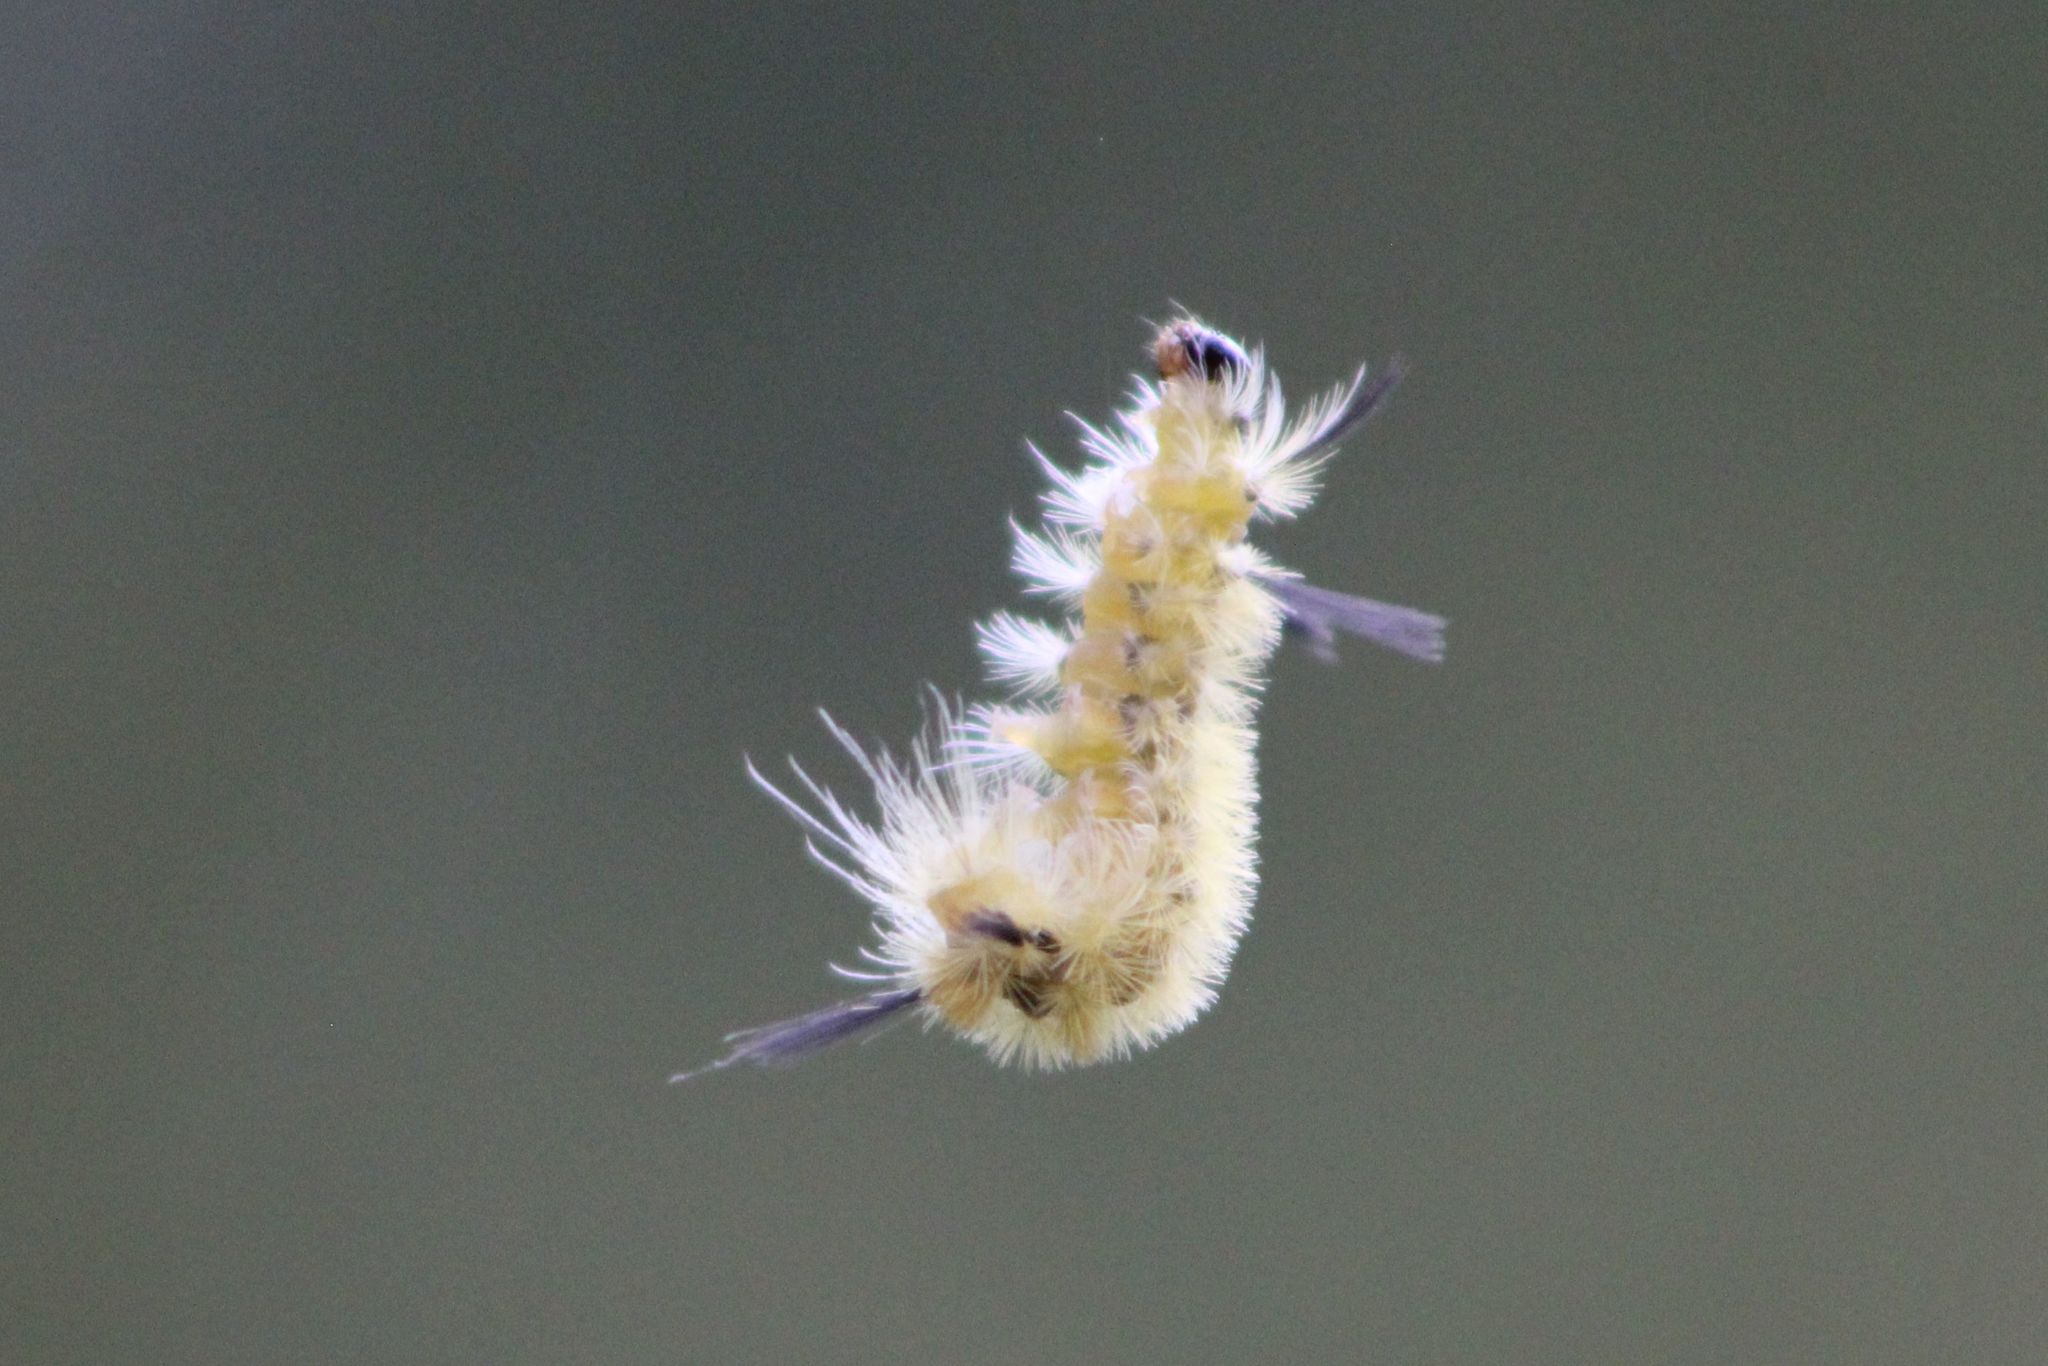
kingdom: Animalia
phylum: Arthropoda
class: Insecta
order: Lepidoptera
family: Erebidae
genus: Halysidota
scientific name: Halysidota tessellaris
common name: Banded tussock moth
